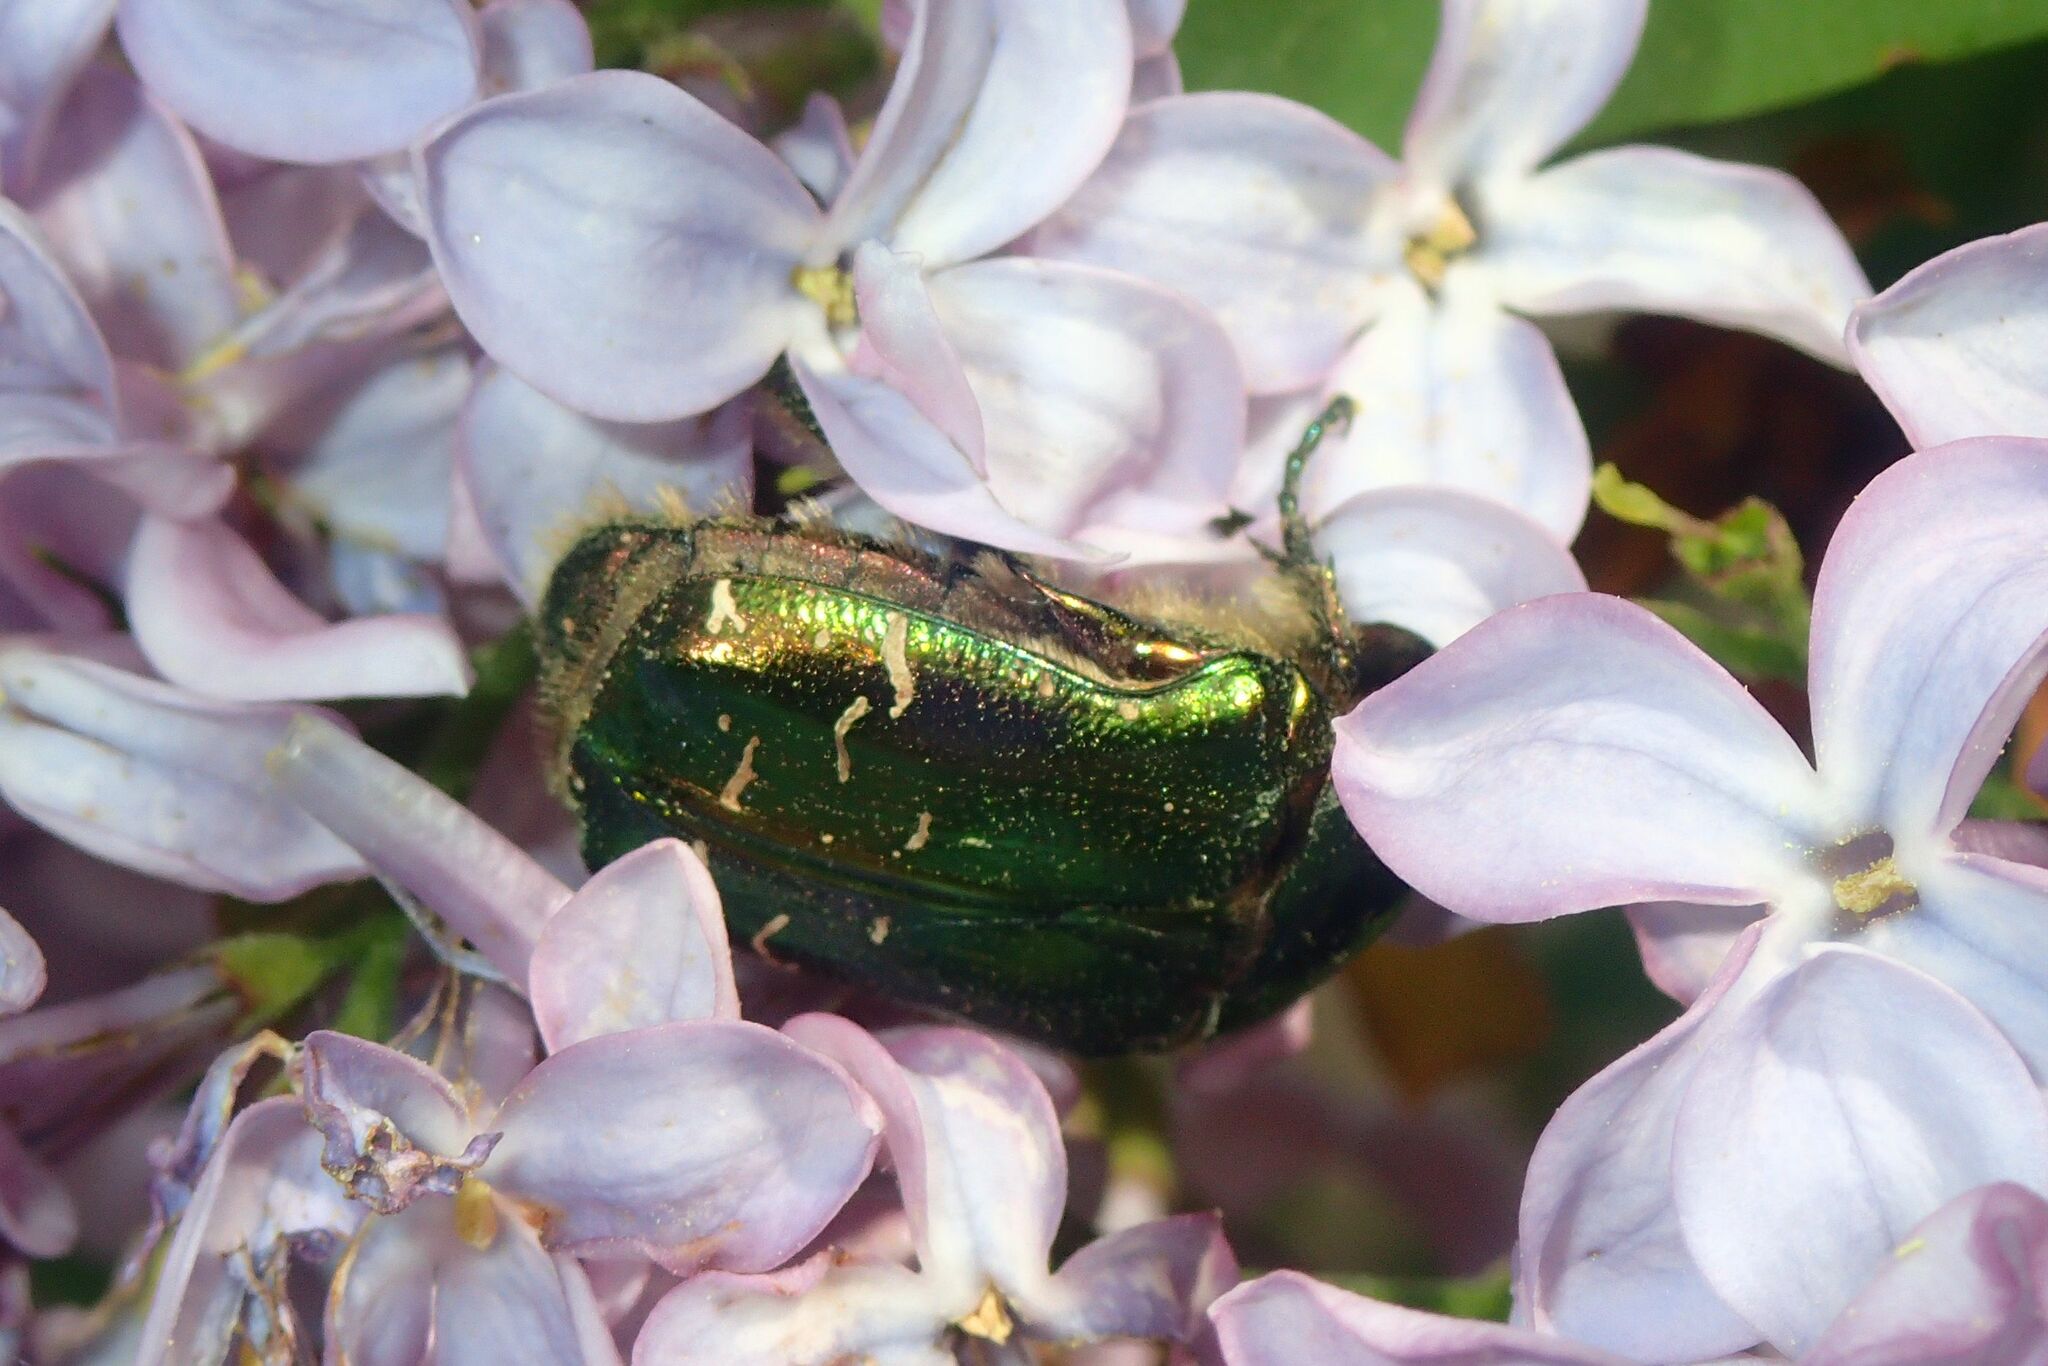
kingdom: Animalia
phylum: Arthropoda
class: Insecta
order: Coleoptera
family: Scarabaeidae
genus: Cetonia
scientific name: Cetonia aurata
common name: Rose chafer
